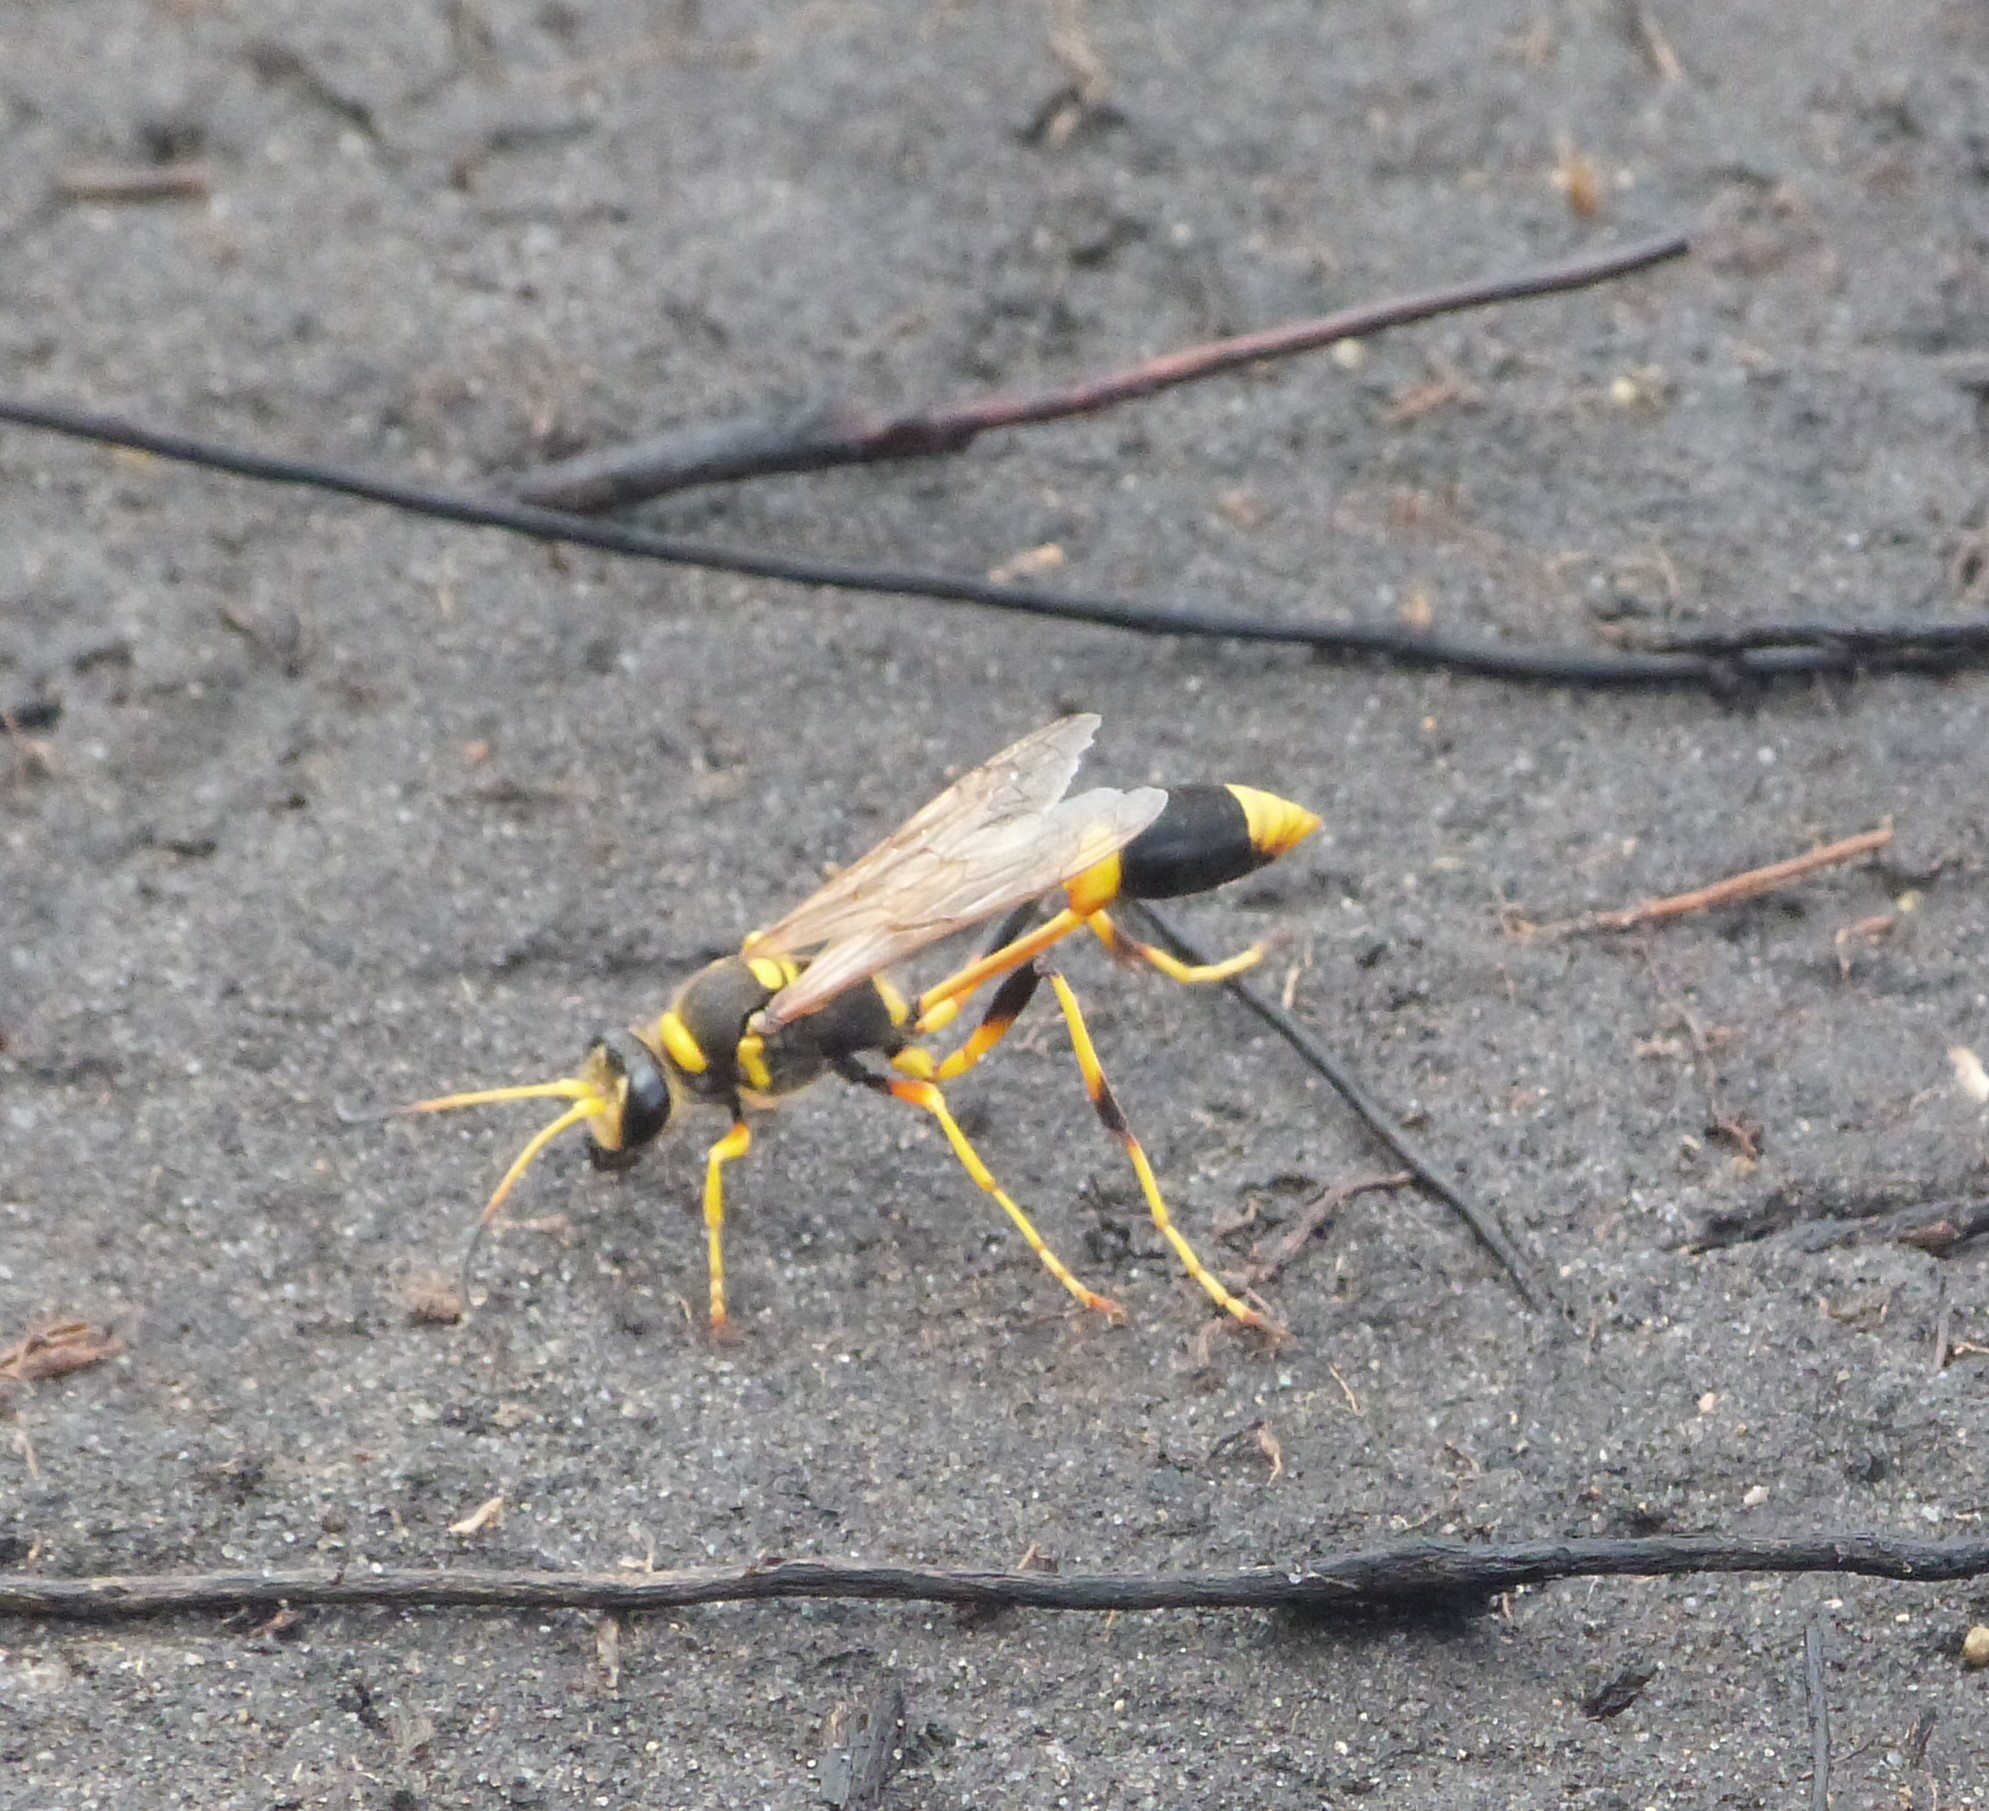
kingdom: Animalia
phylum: Arthropoda
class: Insecta
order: Hymenoptera
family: Sphecidae
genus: Sceliphron
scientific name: Sceliphron laetum
